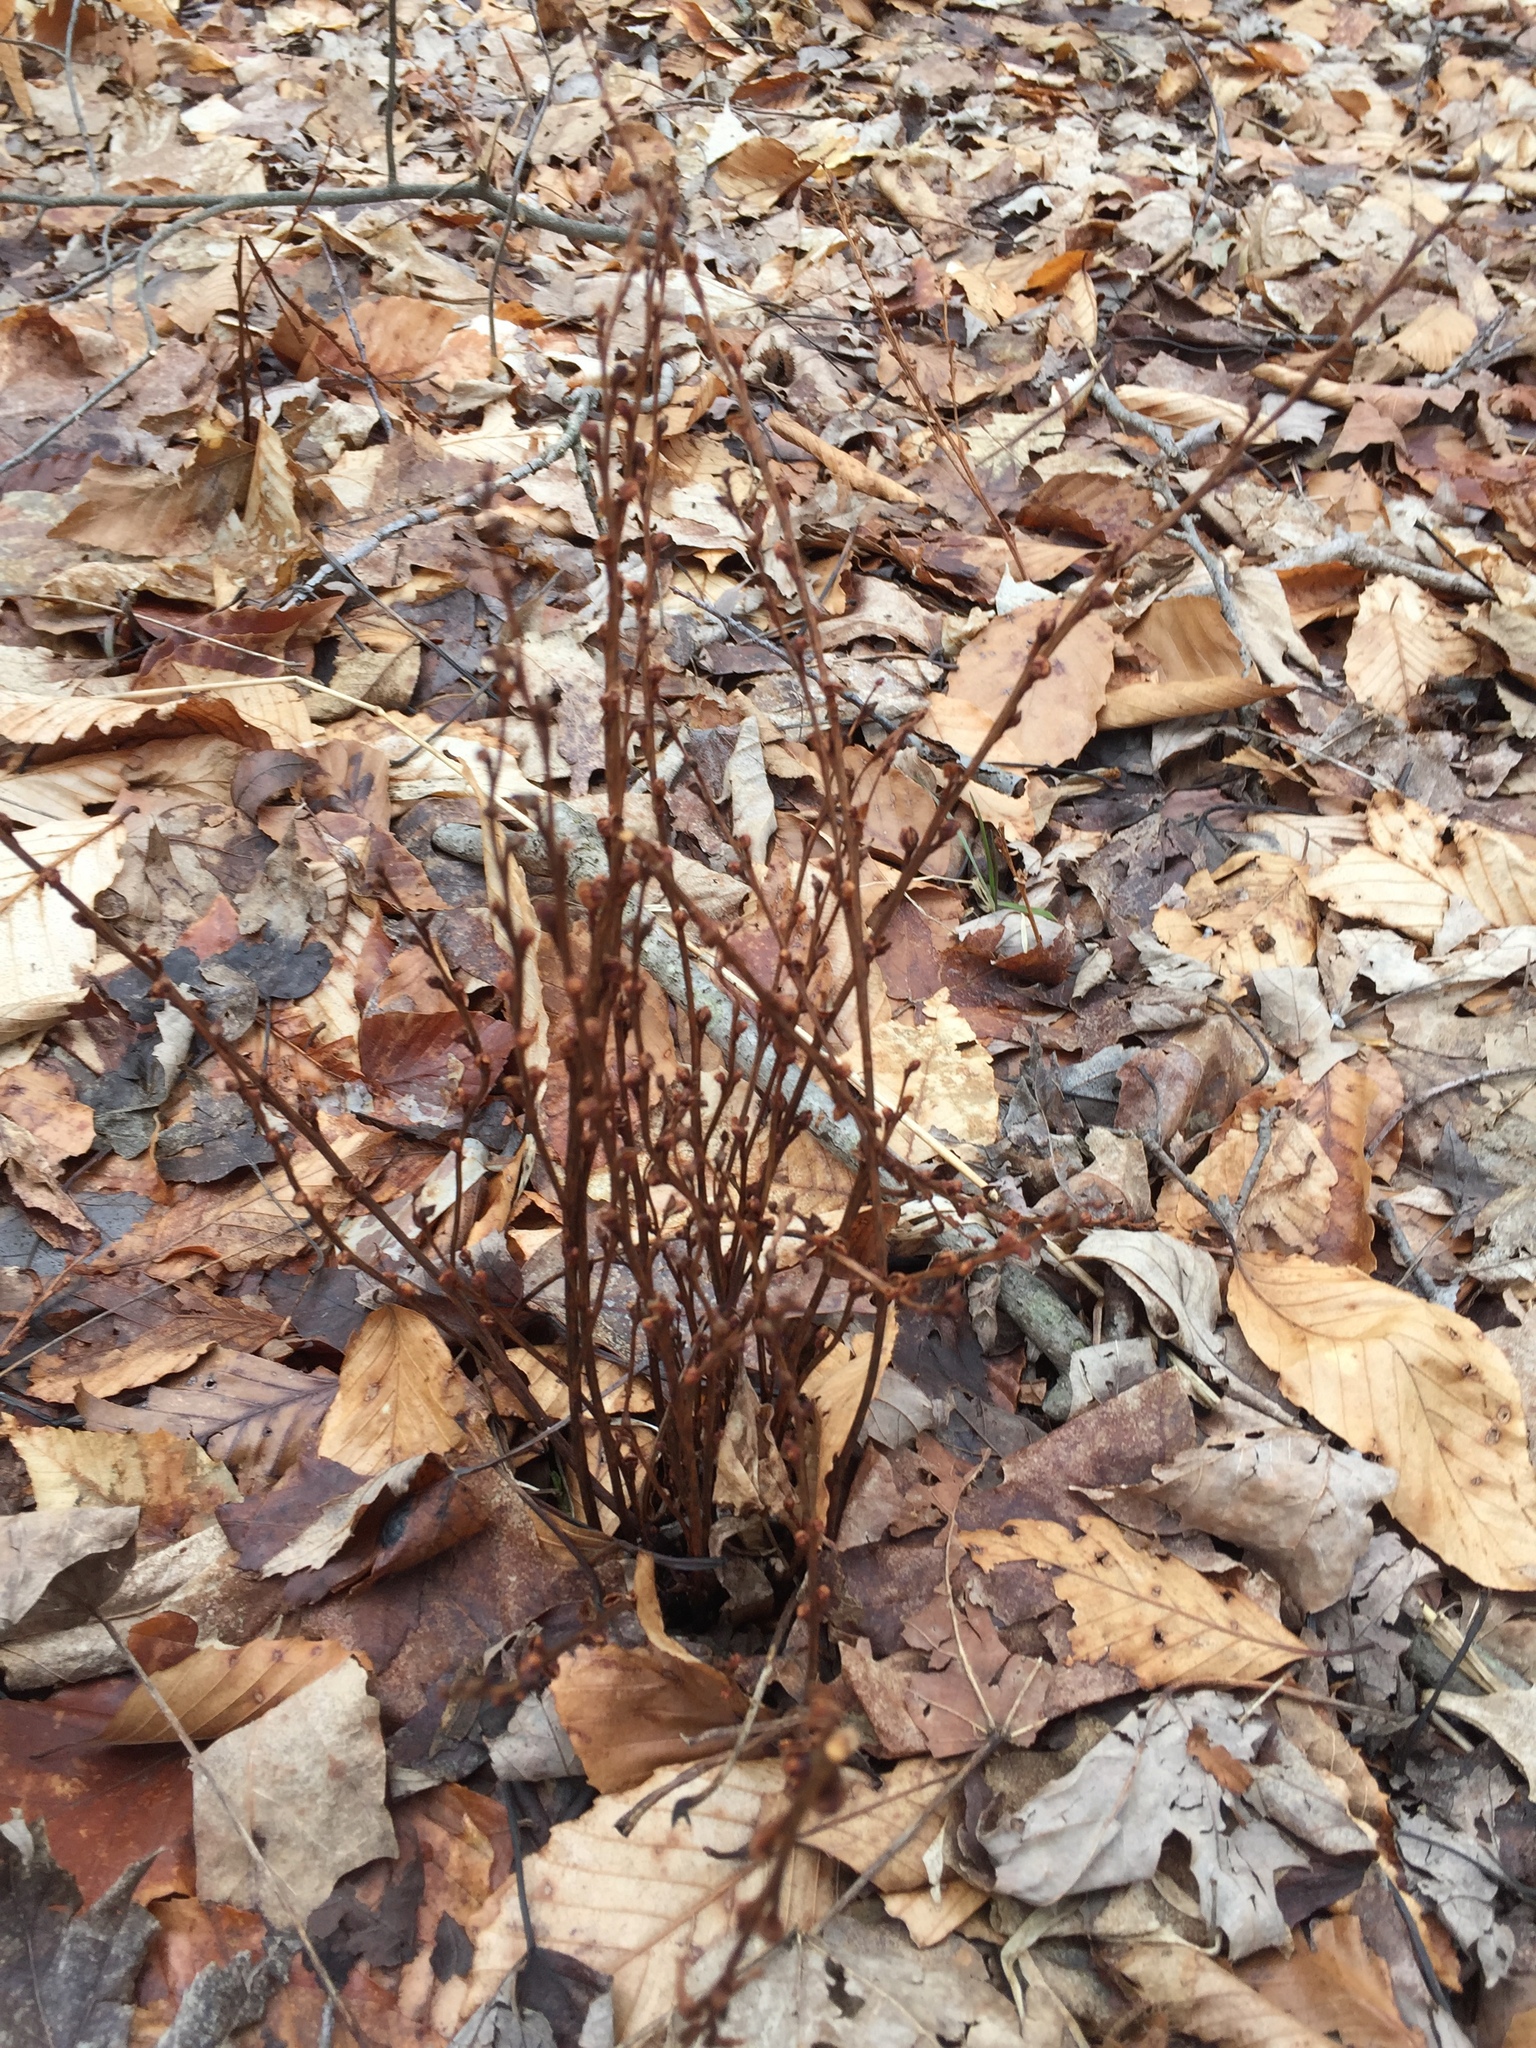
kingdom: Plantae
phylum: Tracheophyta
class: Magnoliopsida
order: Lamiales
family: Orobanchaceae
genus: Epifagus
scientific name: Epifagus virginiana
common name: Beechdrops
